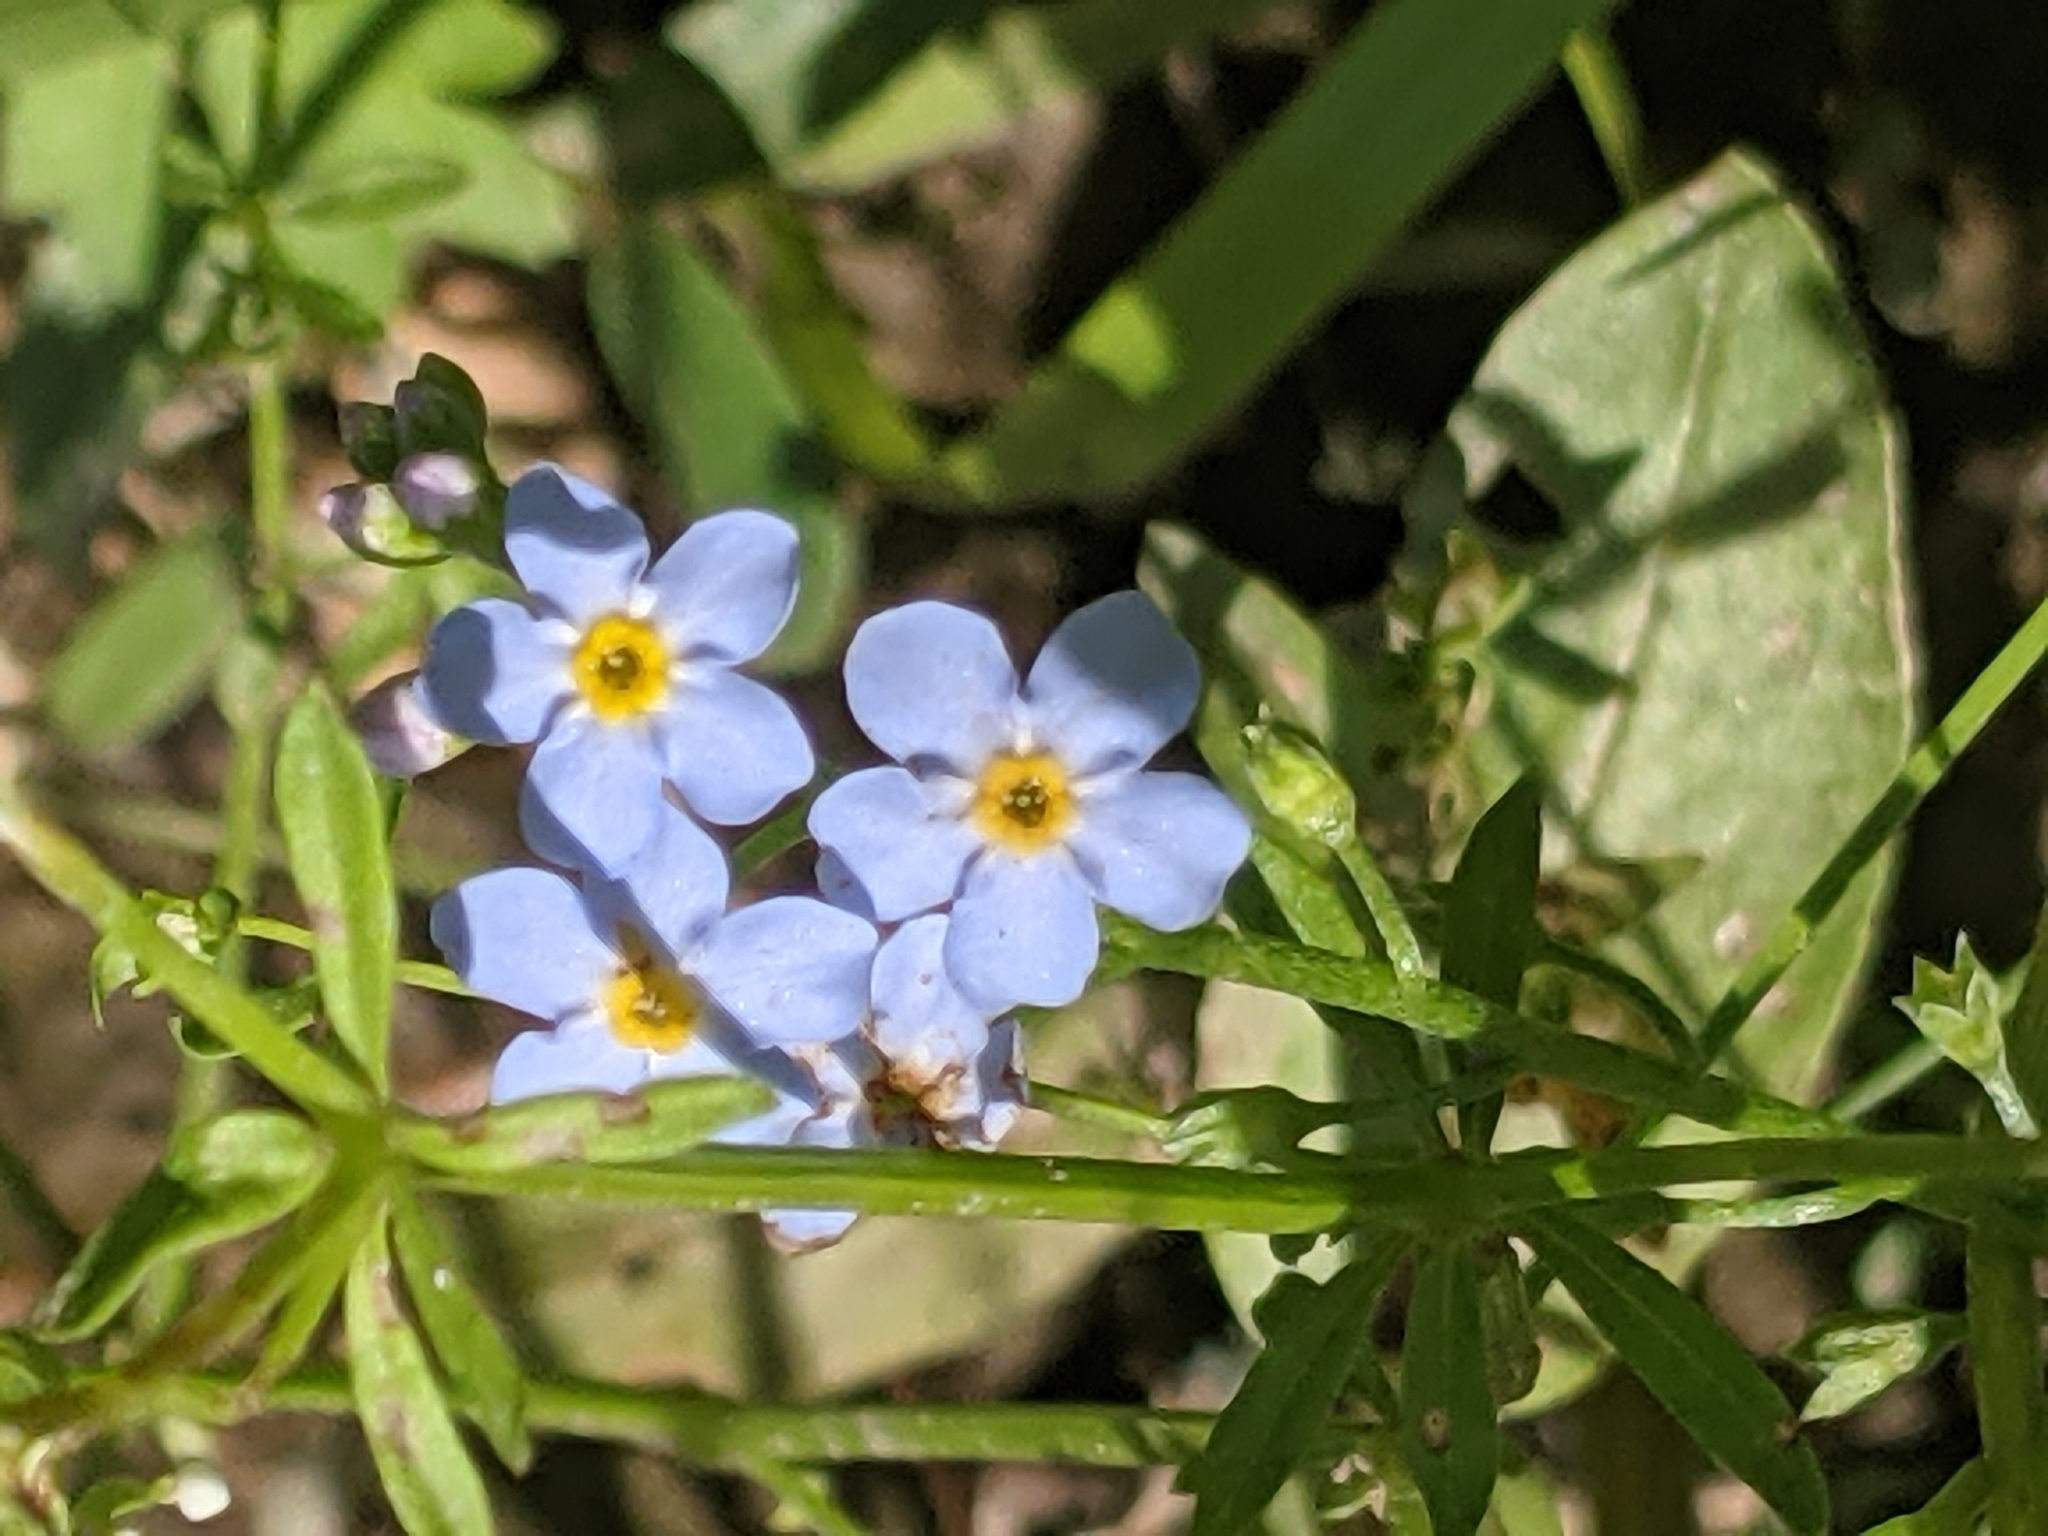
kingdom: Plantae
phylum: Tracheophyta
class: Magnoliopsida
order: Boraginales
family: Boraginaceae
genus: Myosotis
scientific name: Myosotis scorpioides
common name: Water forget-me-not
